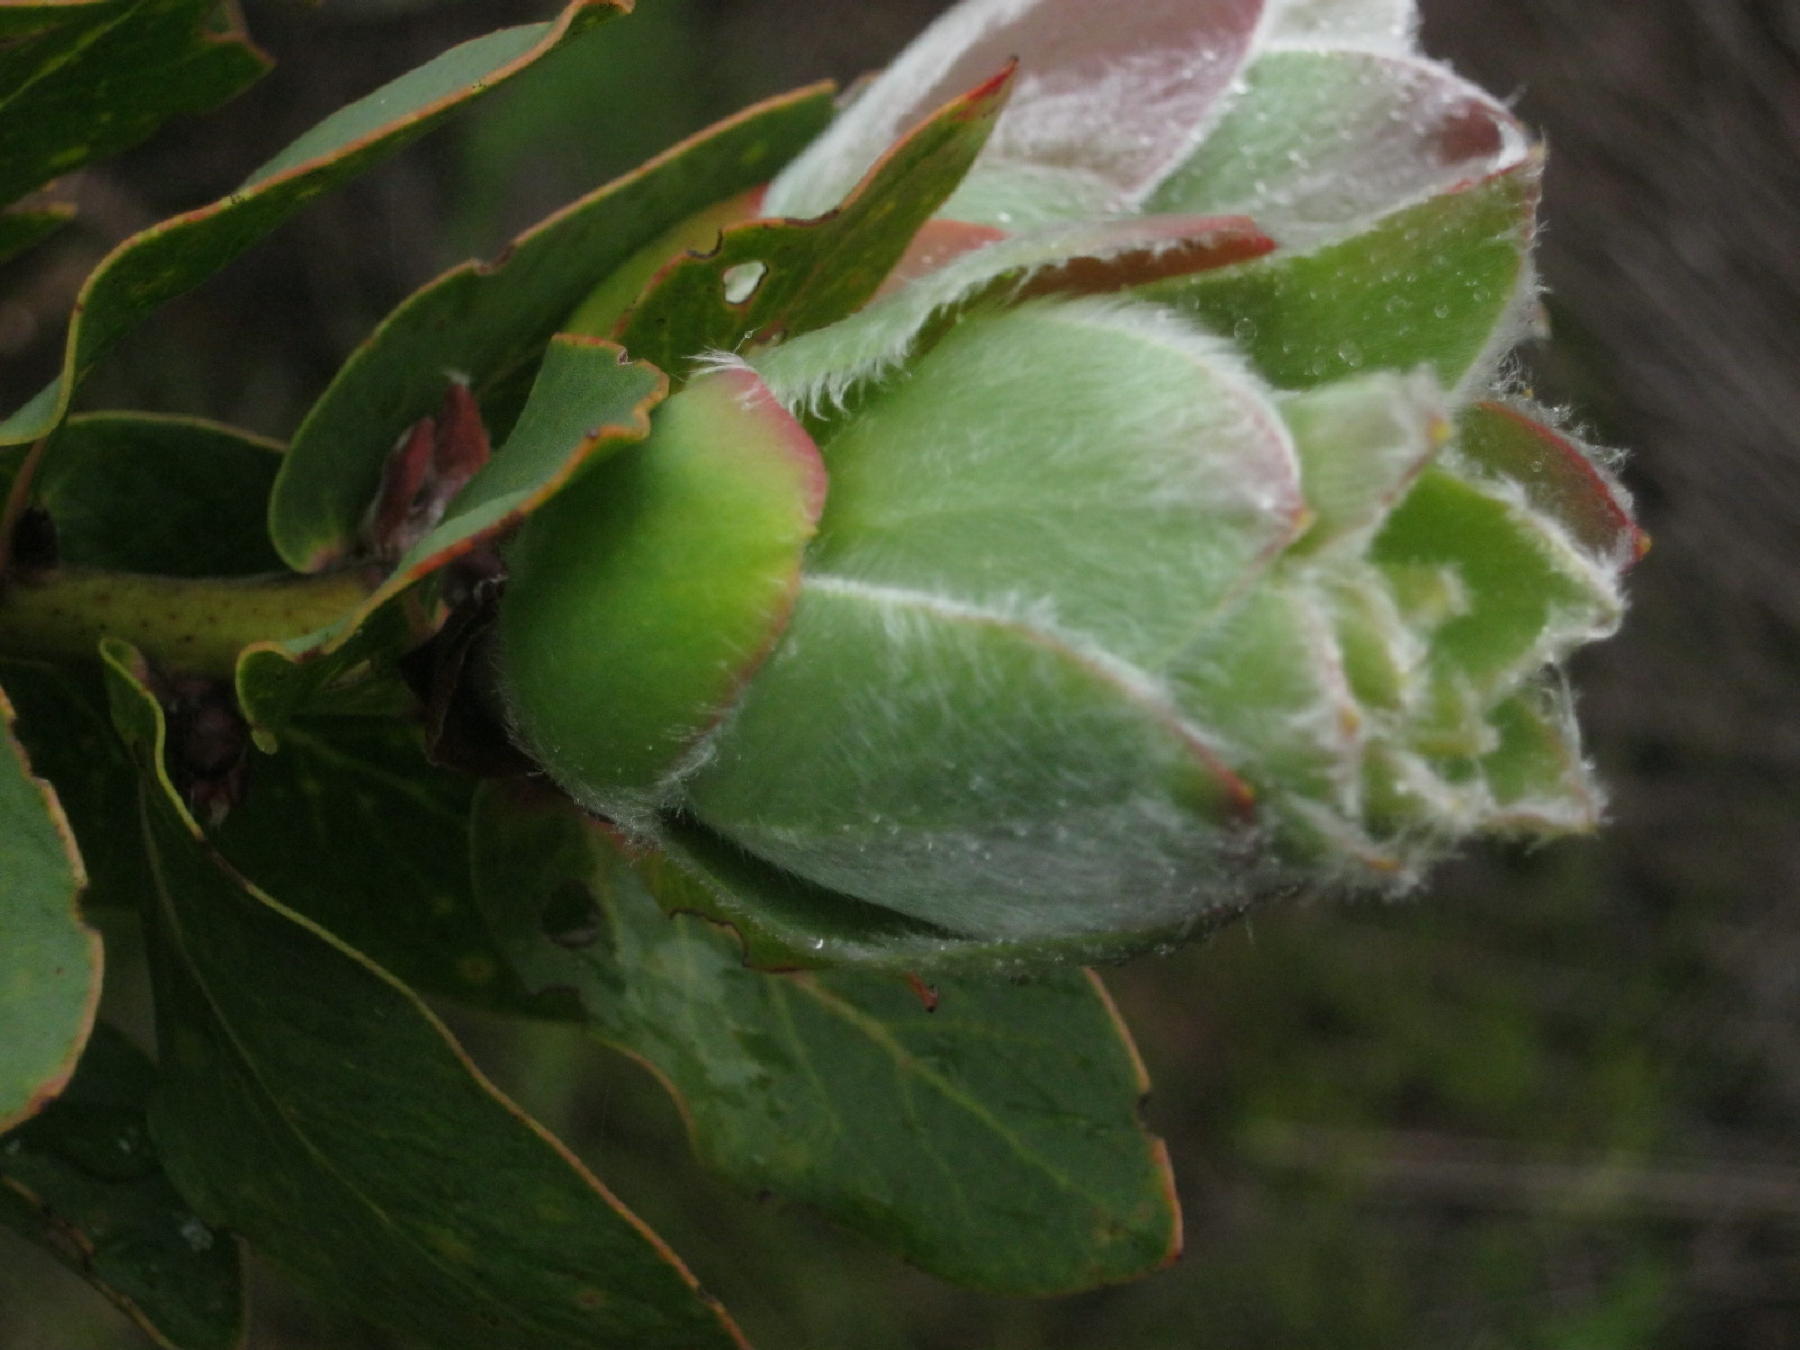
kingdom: Plantae
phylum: Tracheophyta
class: Magnoliopsida
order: Proteales
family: Proteaceae
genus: Protea
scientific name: Protea grandiceps
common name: Red sugarbush
